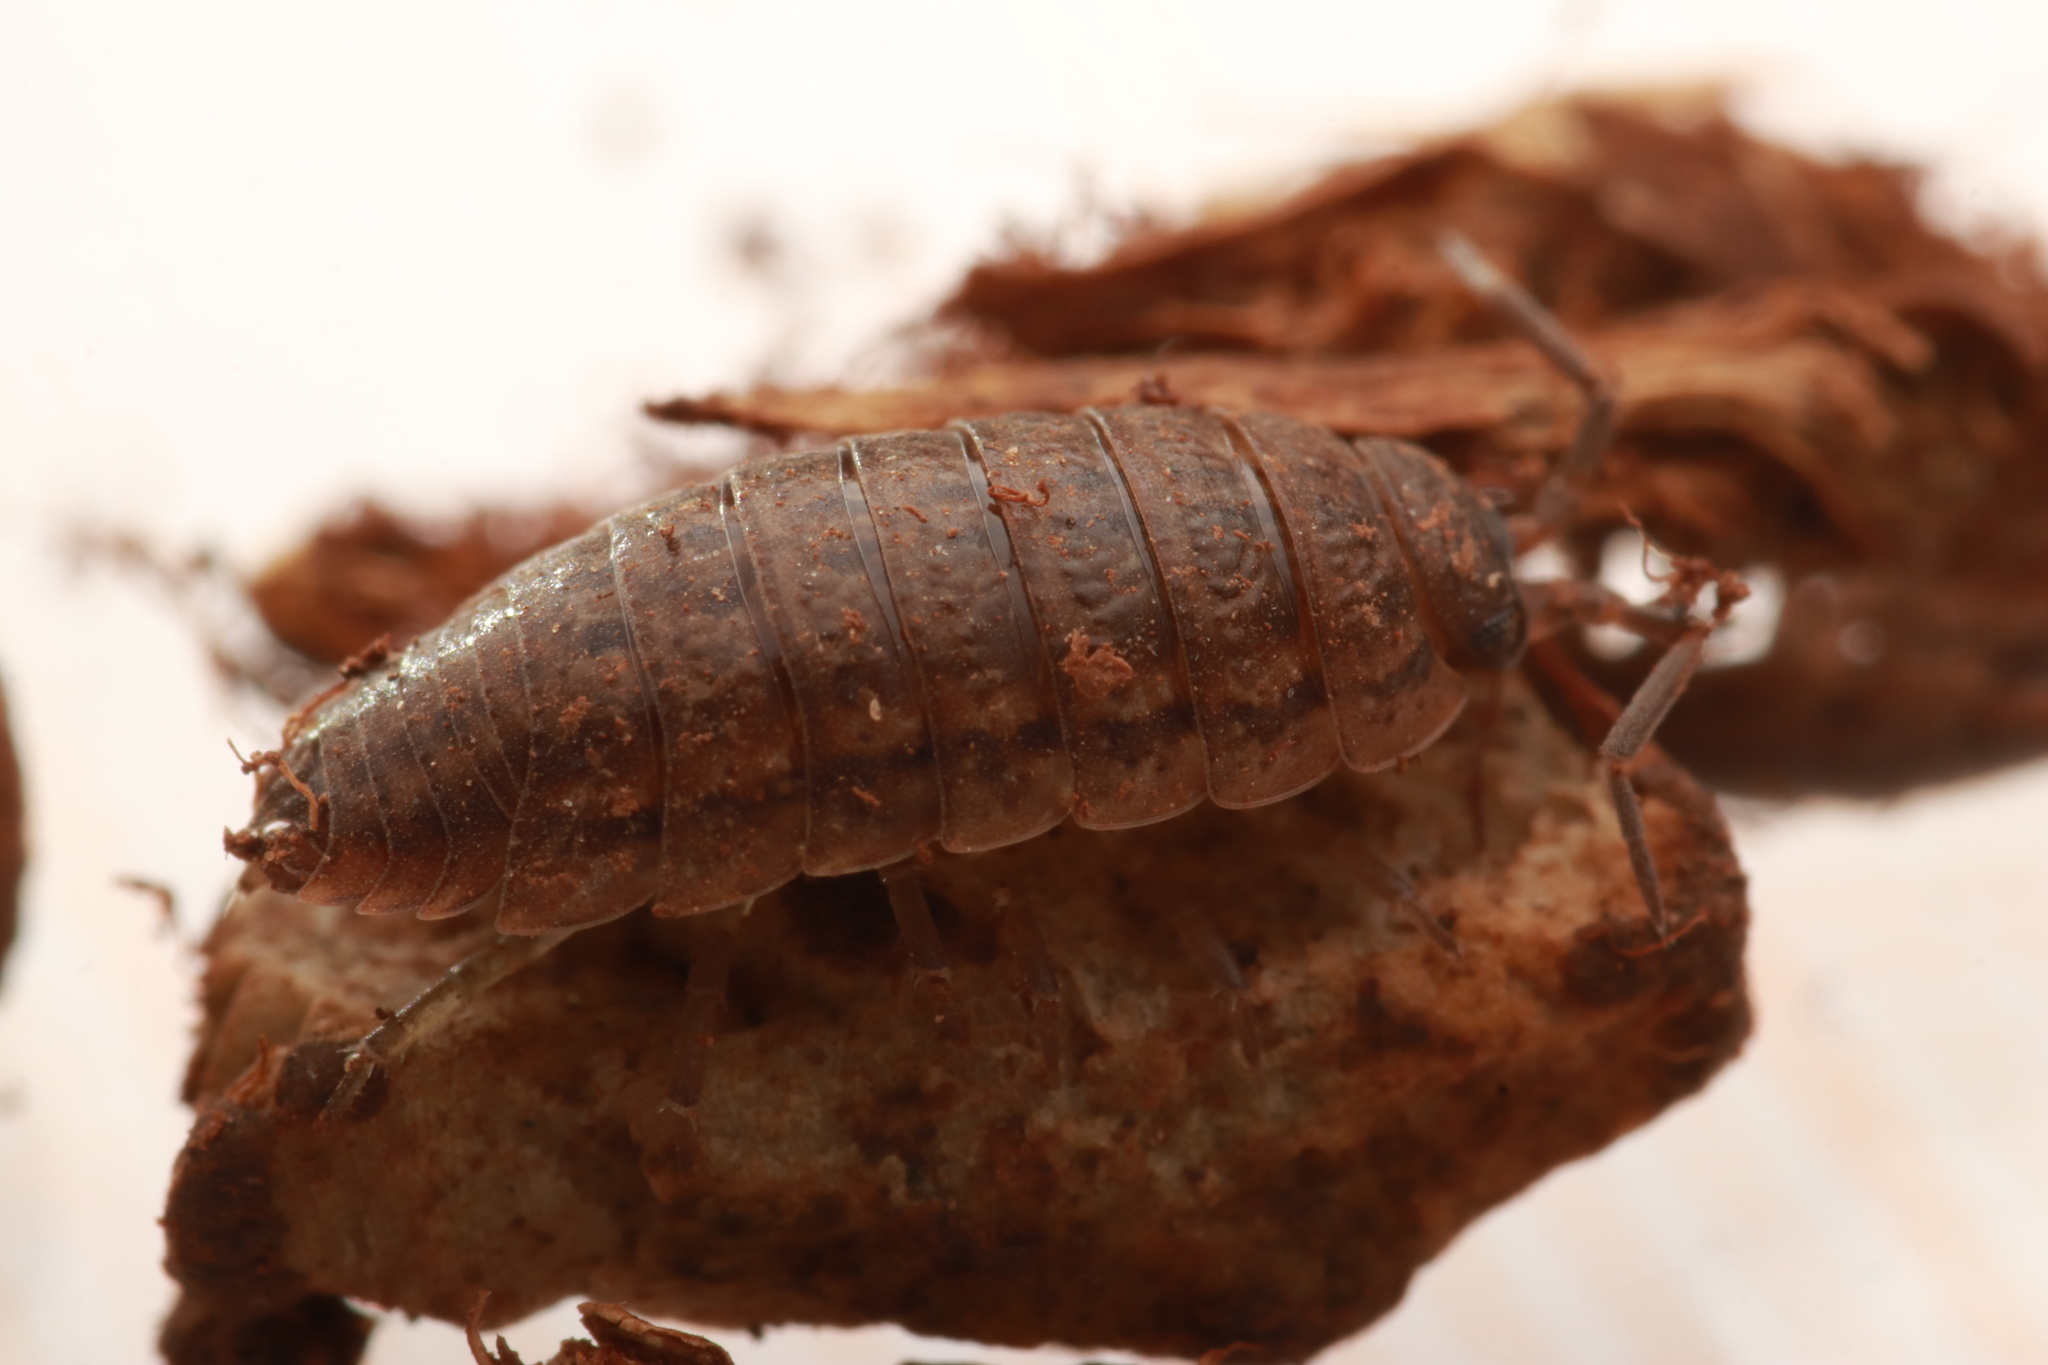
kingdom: Animalia
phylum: Arthropoda
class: Malacostraca
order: Isopoda
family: Porcellionidae
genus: Porcellio
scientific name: Porcellio provincialis
